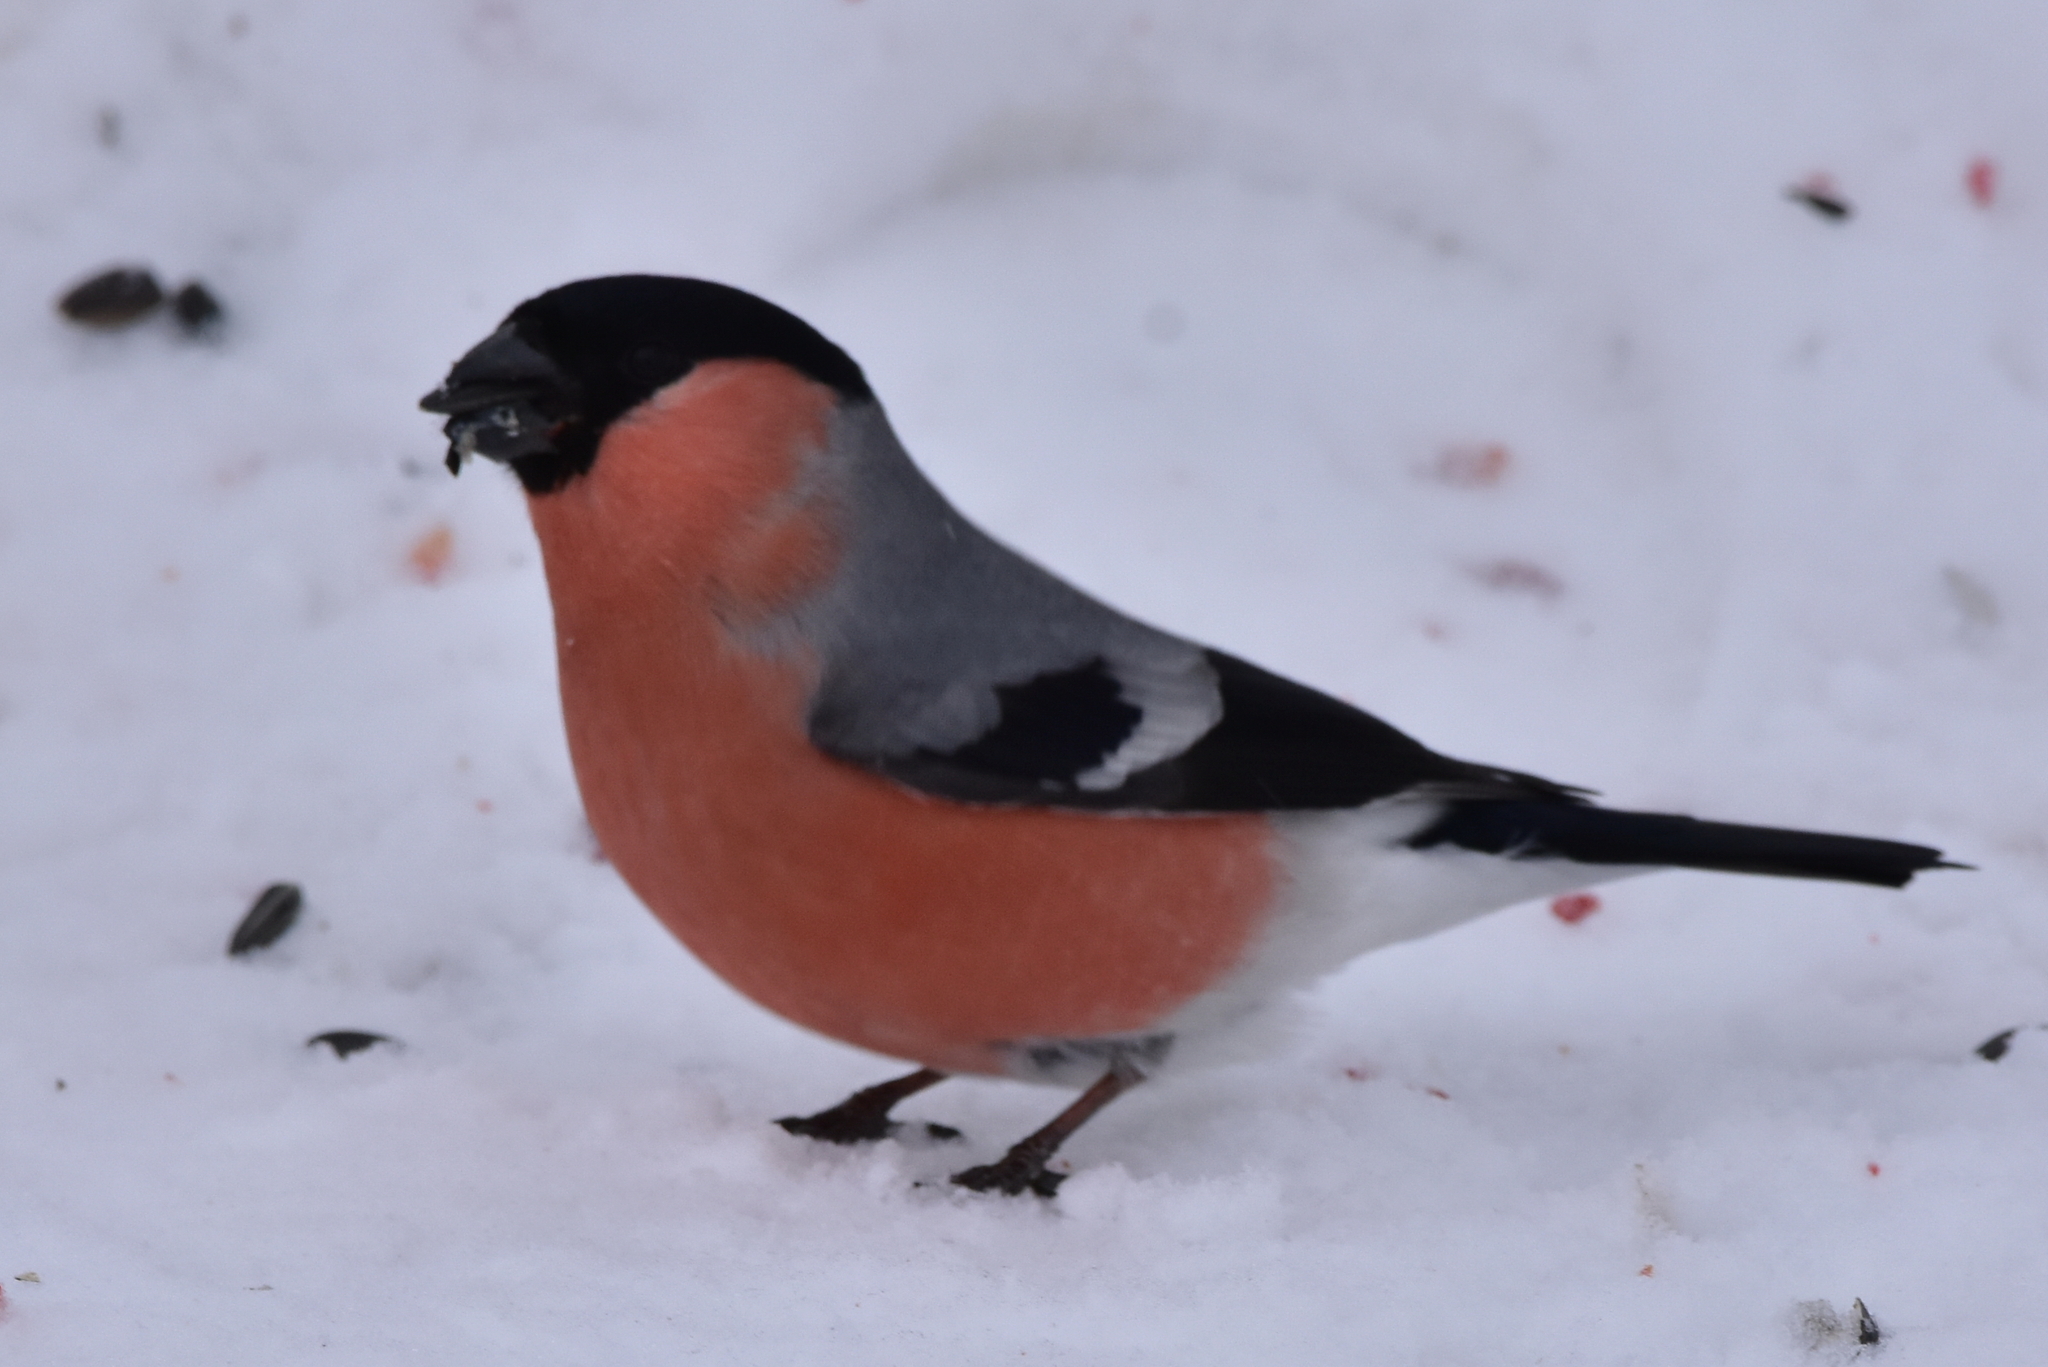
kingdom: Animalia
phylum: Chordata
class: Aves
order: Passeriformes
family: Fringillidae
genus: Pyrrhula
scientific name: Pyrrhula pyrrhula
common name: Eurasian bullfinch
